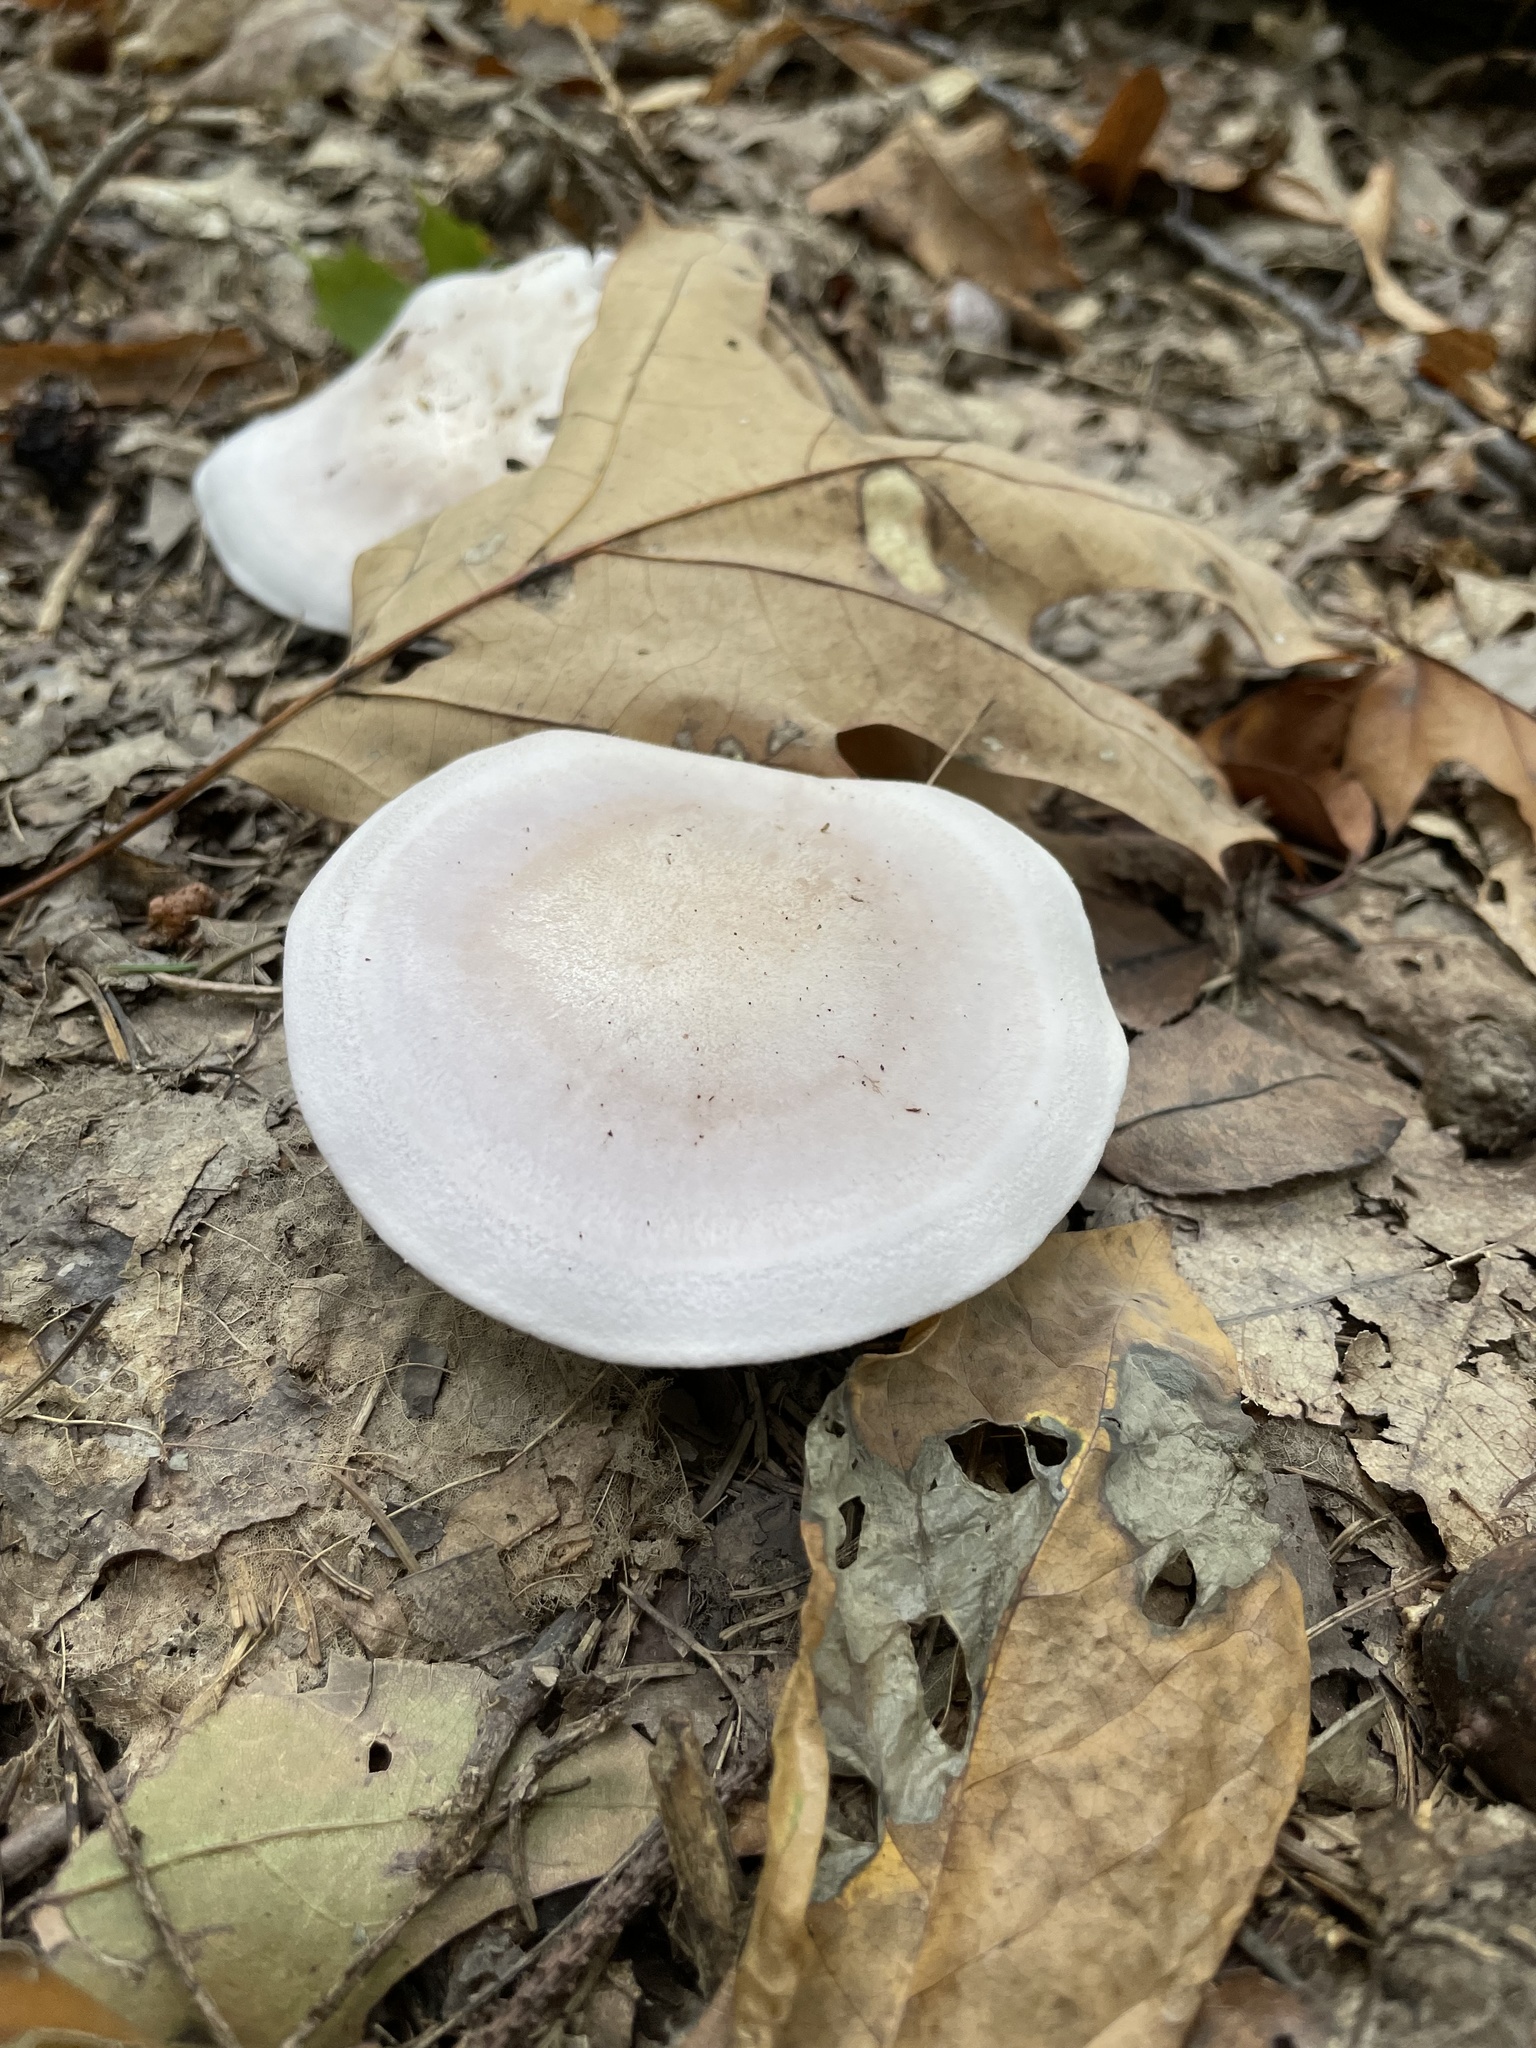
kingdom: Fungi
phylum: Basidiomycota
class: Agaricomycetes
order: Agaricales
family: Tricholomataceae
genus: Collybia
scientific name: Collybia
